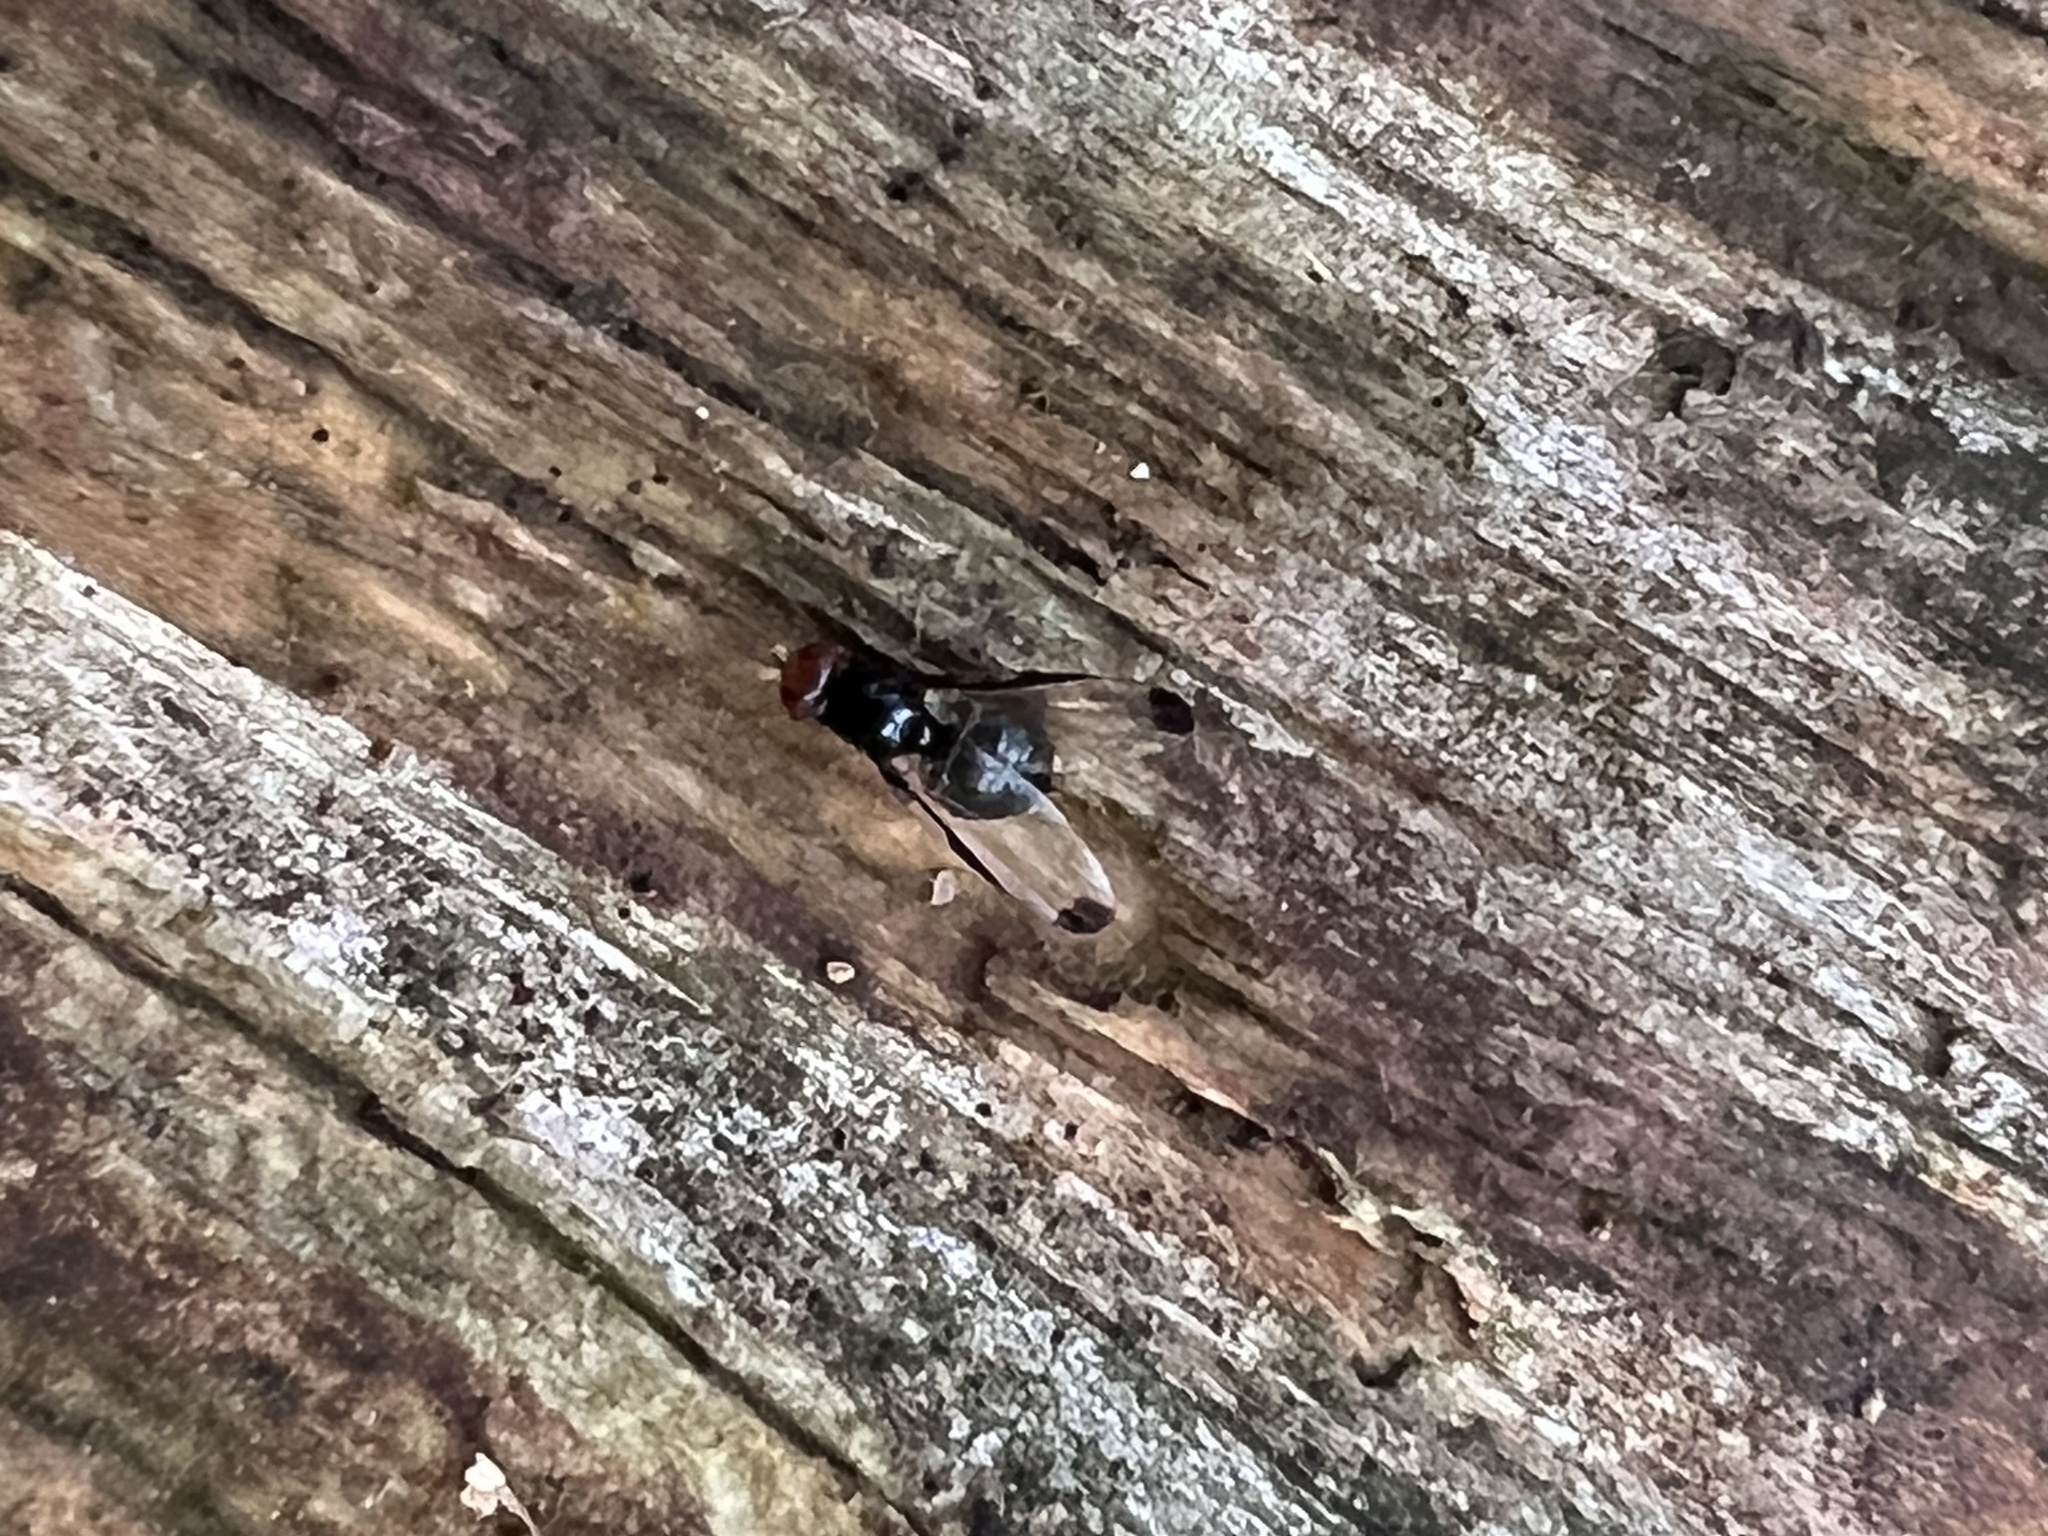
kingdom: Animalia
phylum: Arthropoda
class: Insecta
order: Diptera
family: Ulidiidae
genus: Seioptera
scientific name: Seioptera vibrans
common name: Dark-tipped wingwaver
